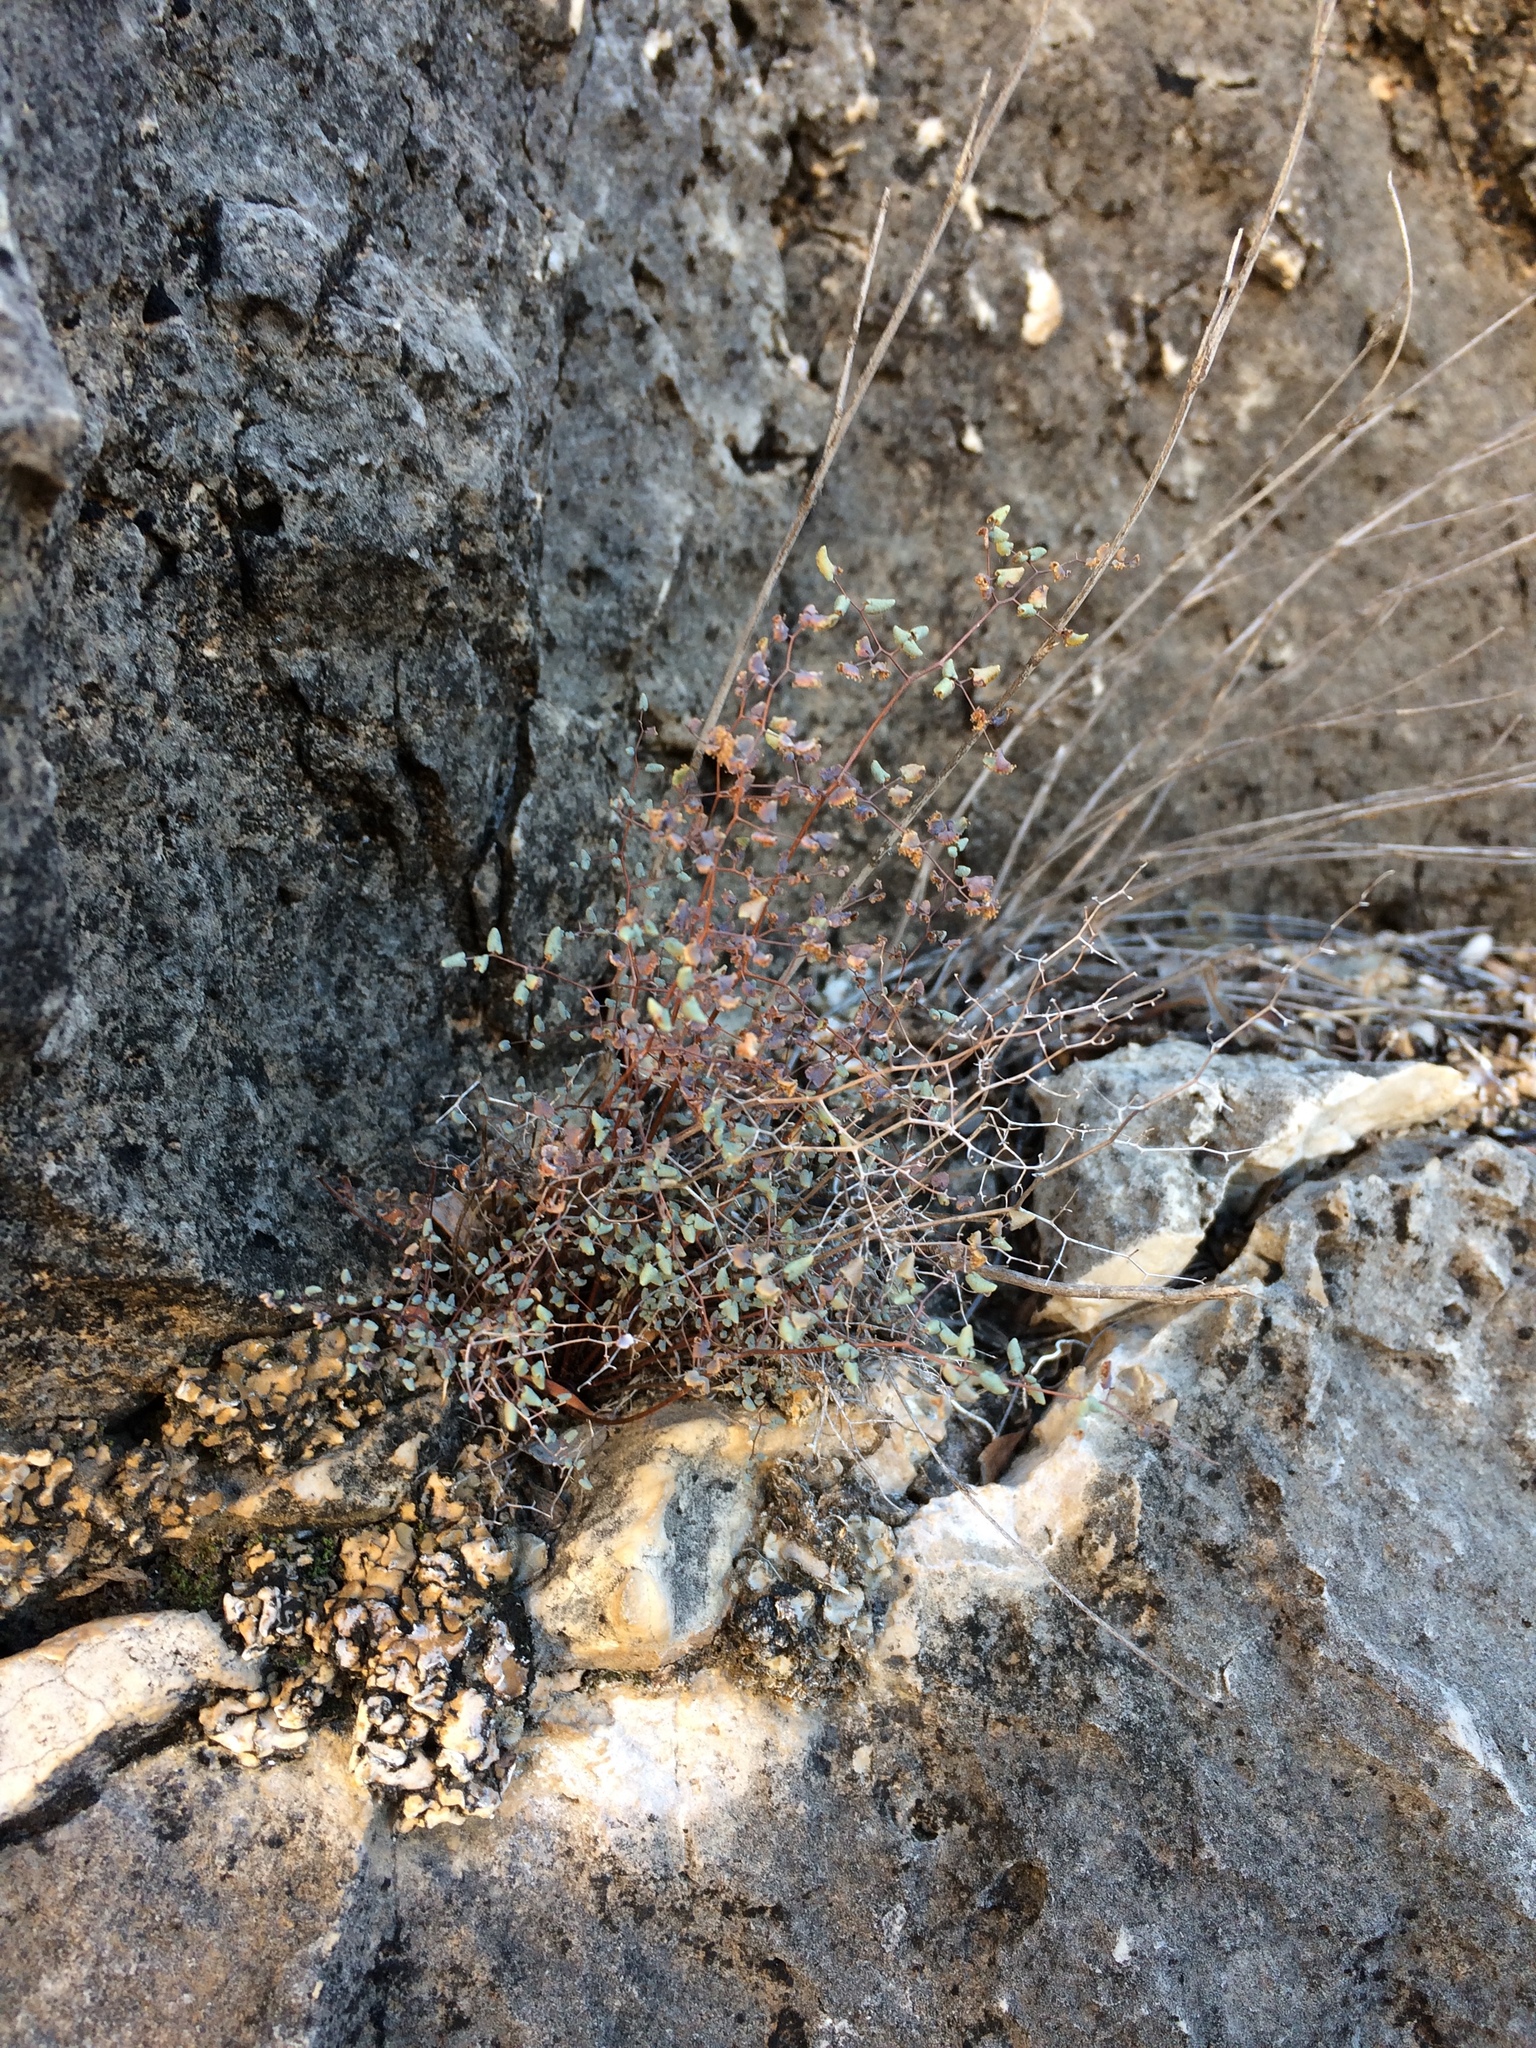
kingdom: Plantae
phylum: Tracheophyta
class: Polypodiopsida
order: Polypodiales
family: Pteridaceae
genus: Argyrochosma
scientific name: Argyrochosma microphylla
